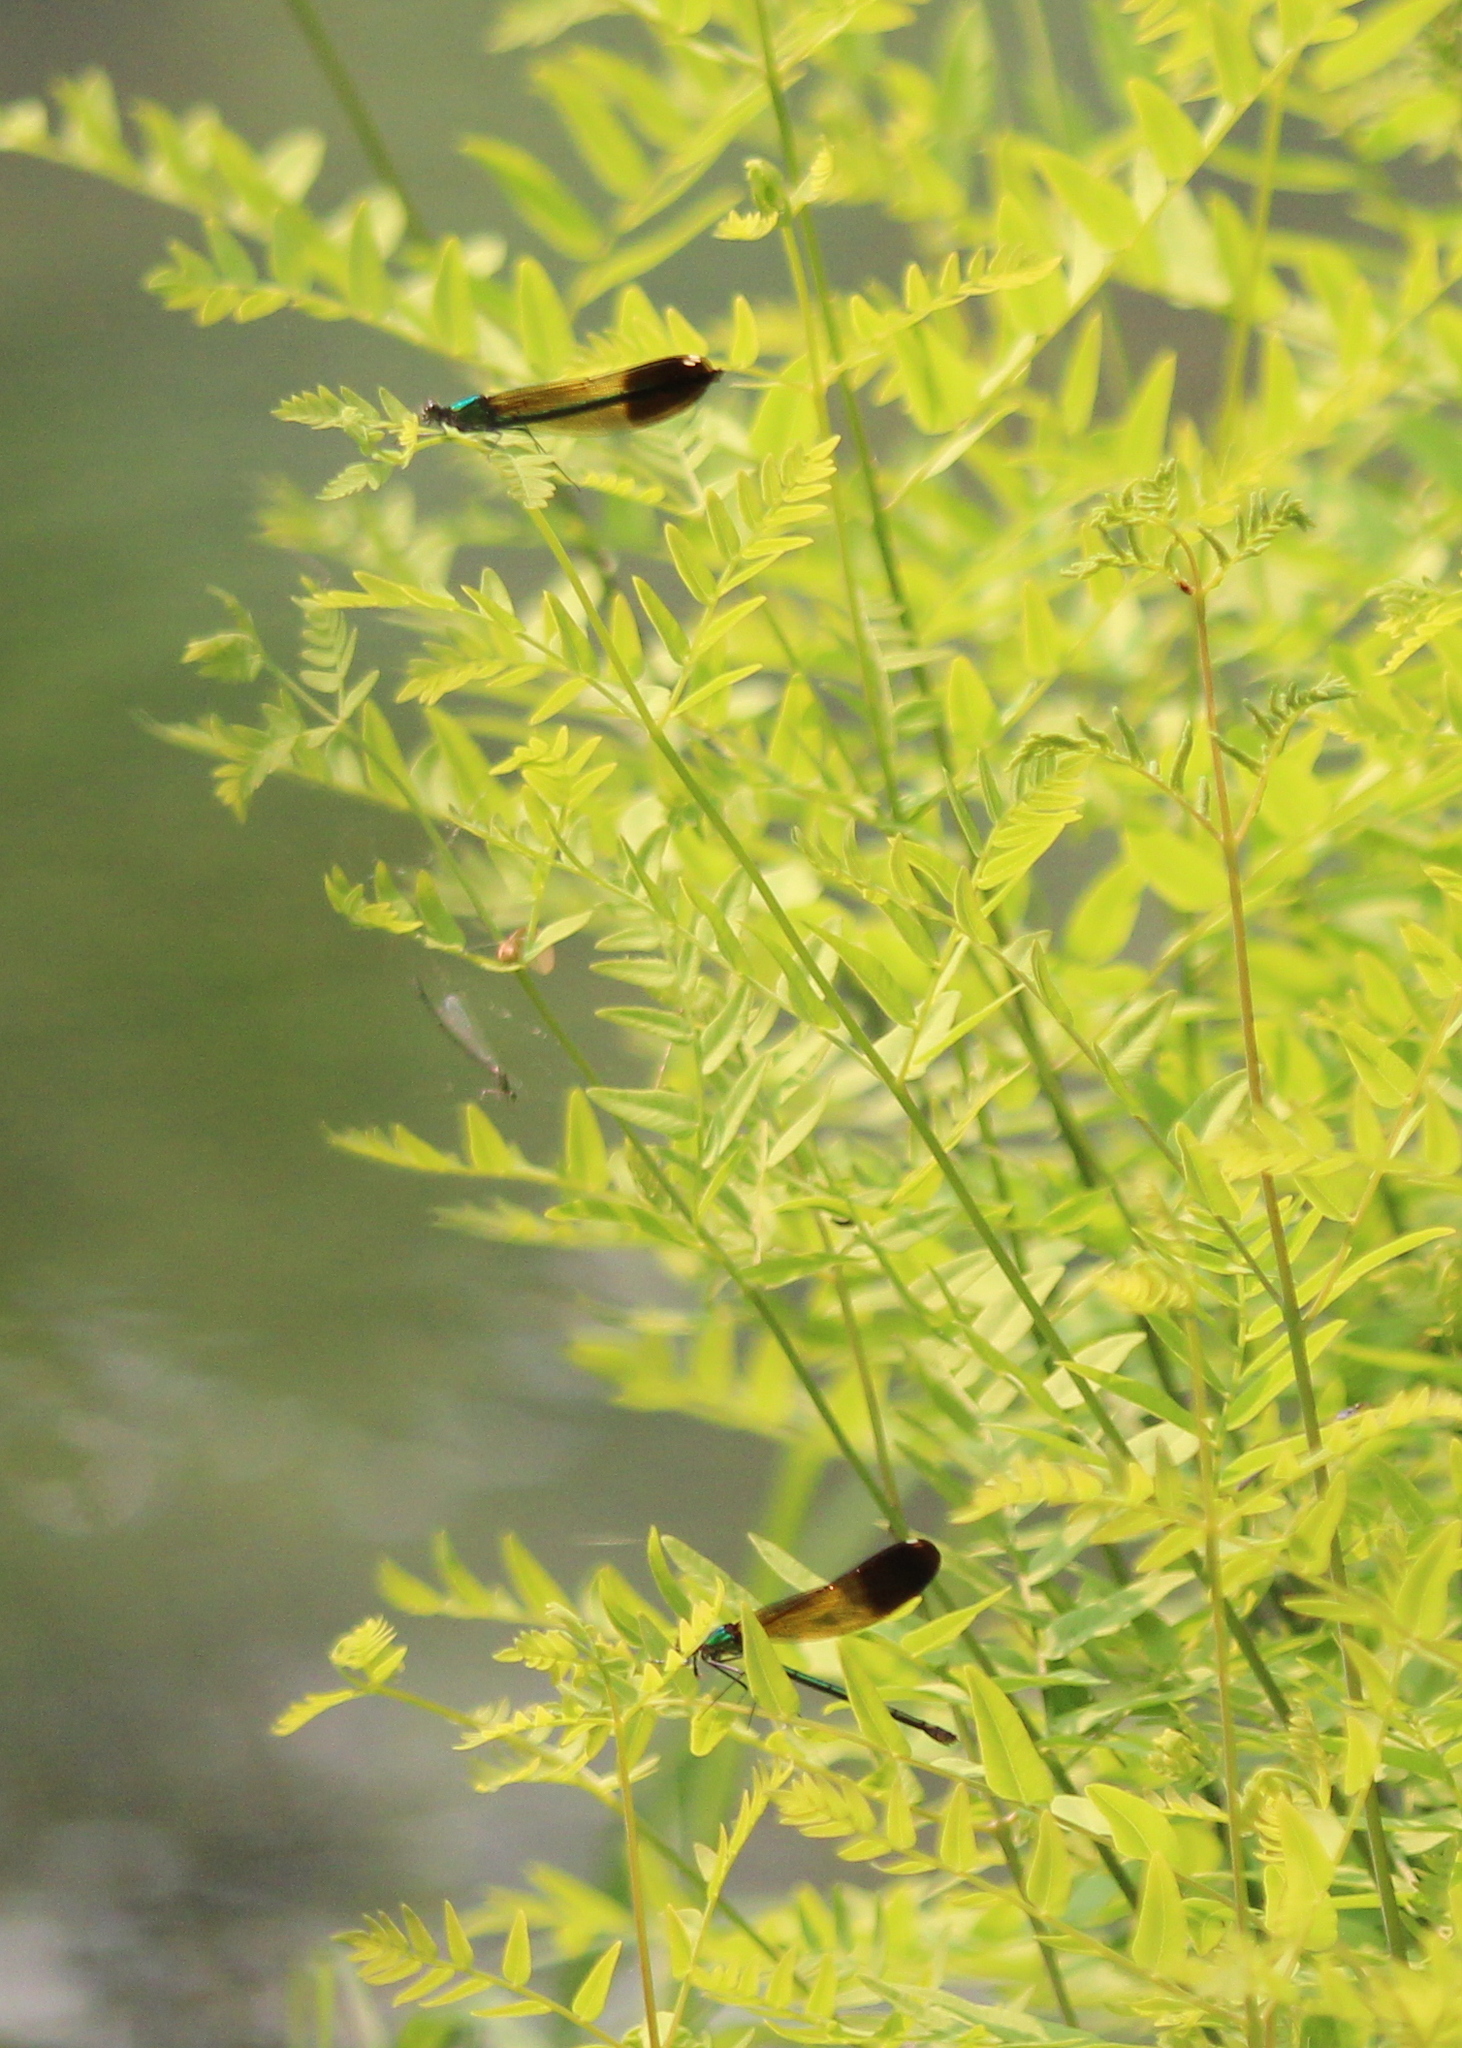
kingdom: Animalia
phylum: Arthropoda
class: Insecta
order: Odonata
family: Calopterygidae
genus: Calopteryx
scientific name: Calopteryx aequabilis
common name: River jewelwing
